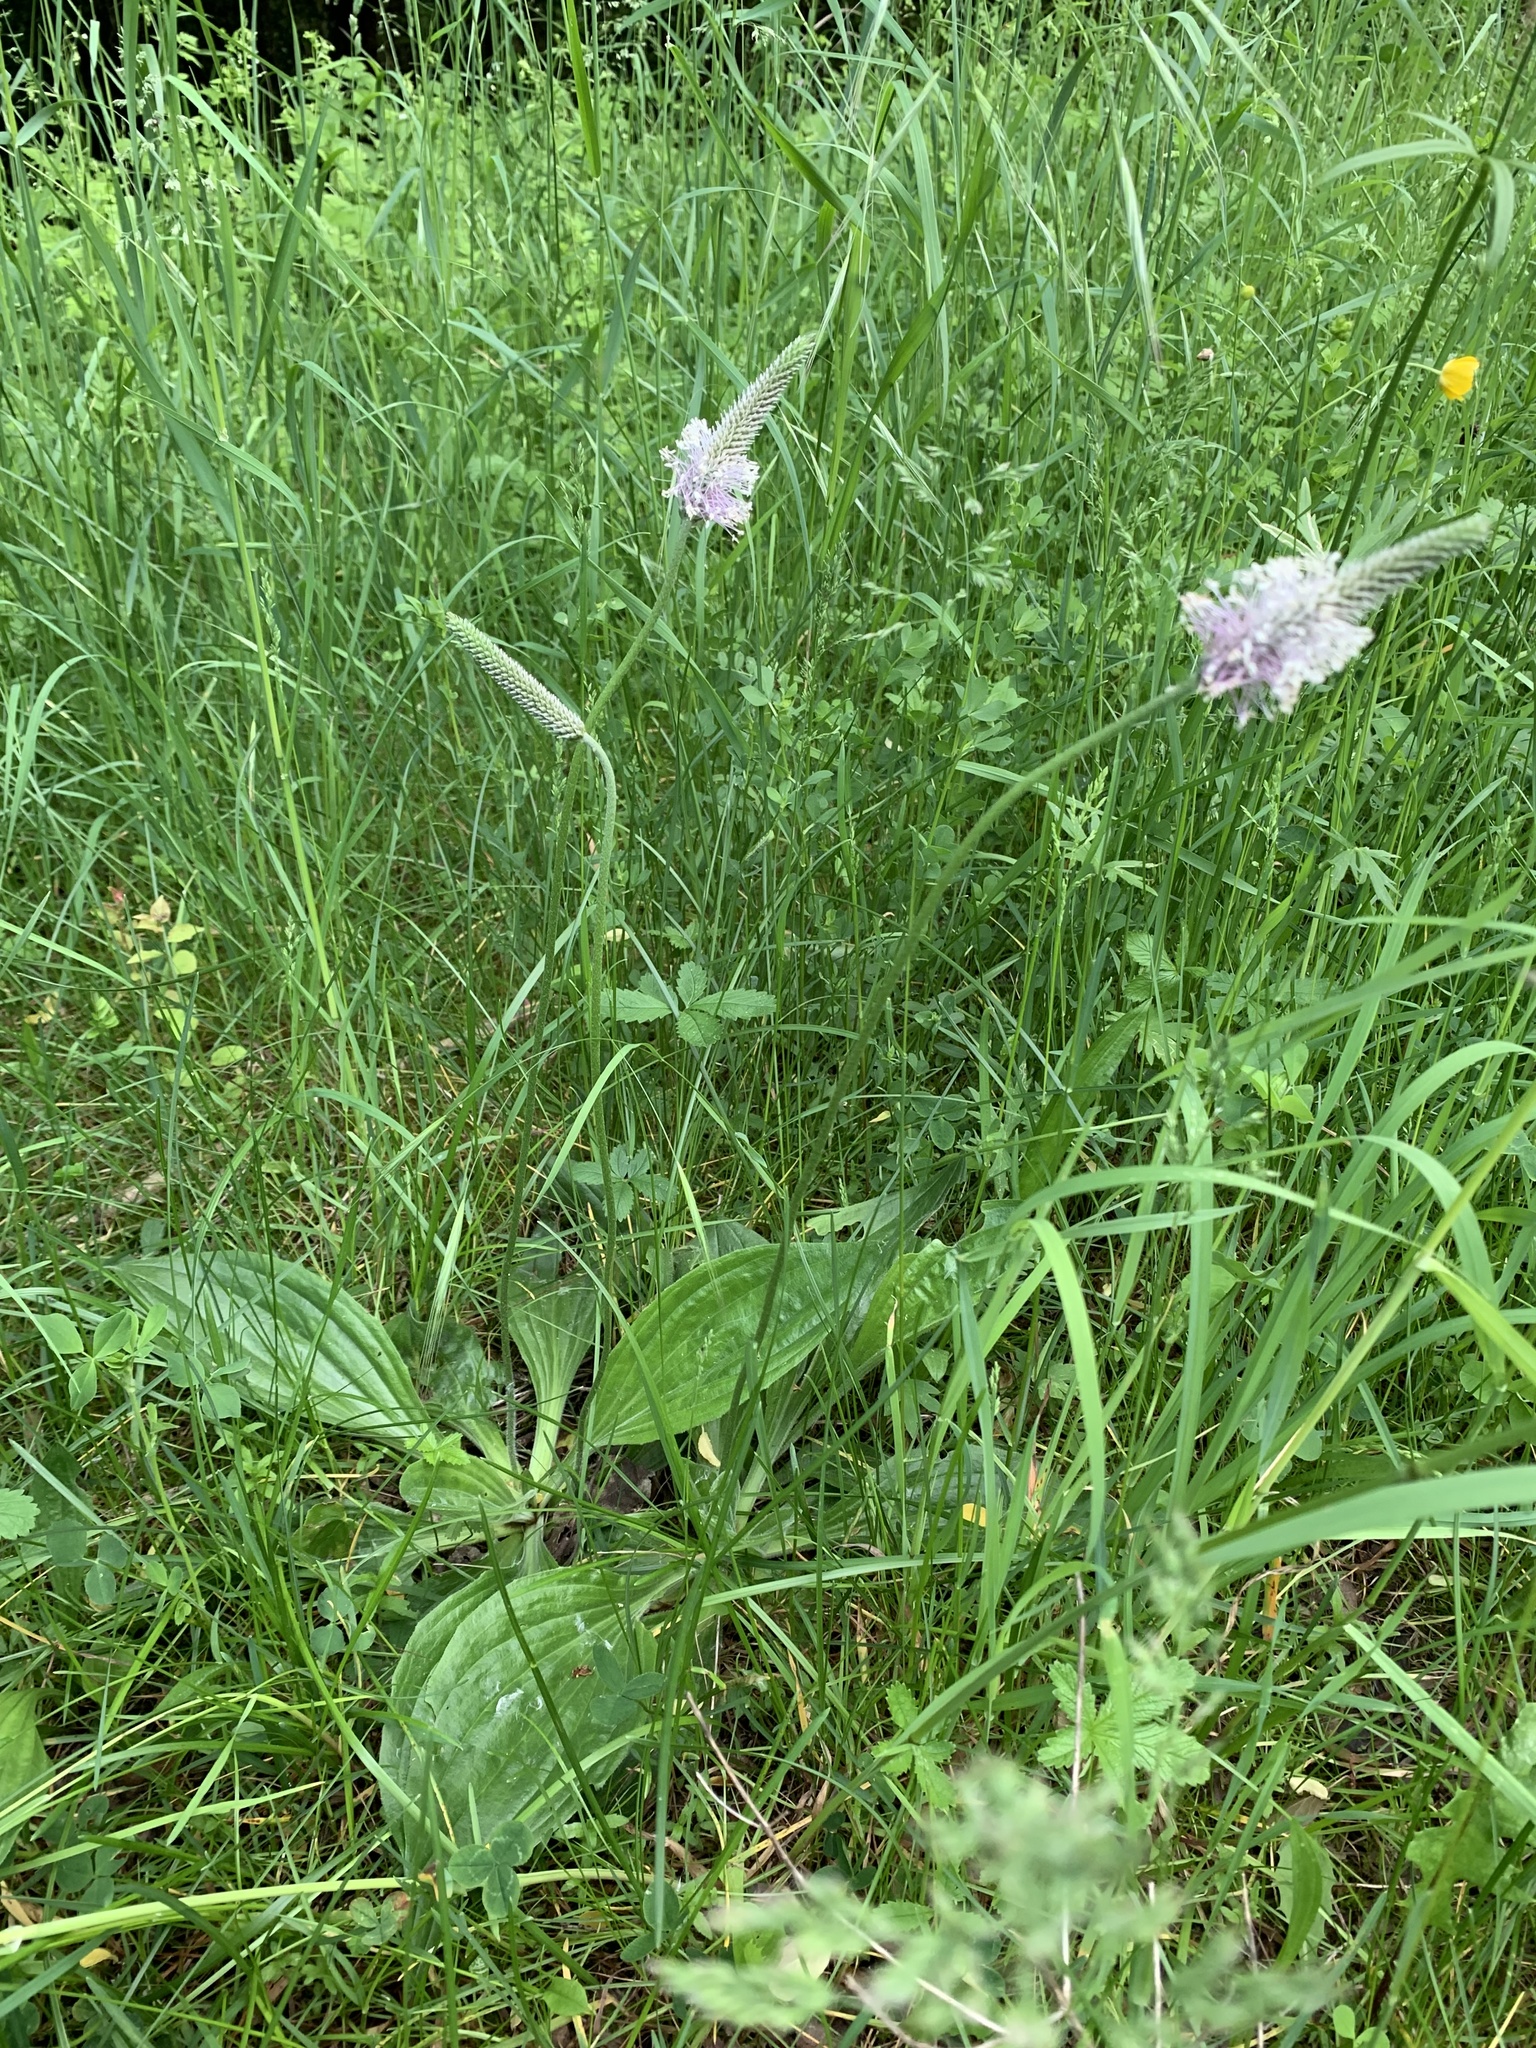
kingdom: Plantae
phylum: Tracheophyta
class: Magnoliopsida
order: Lamiales
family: Plantaginaceae
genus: Plantago
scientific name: Plantago media
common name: Hoary plantain
